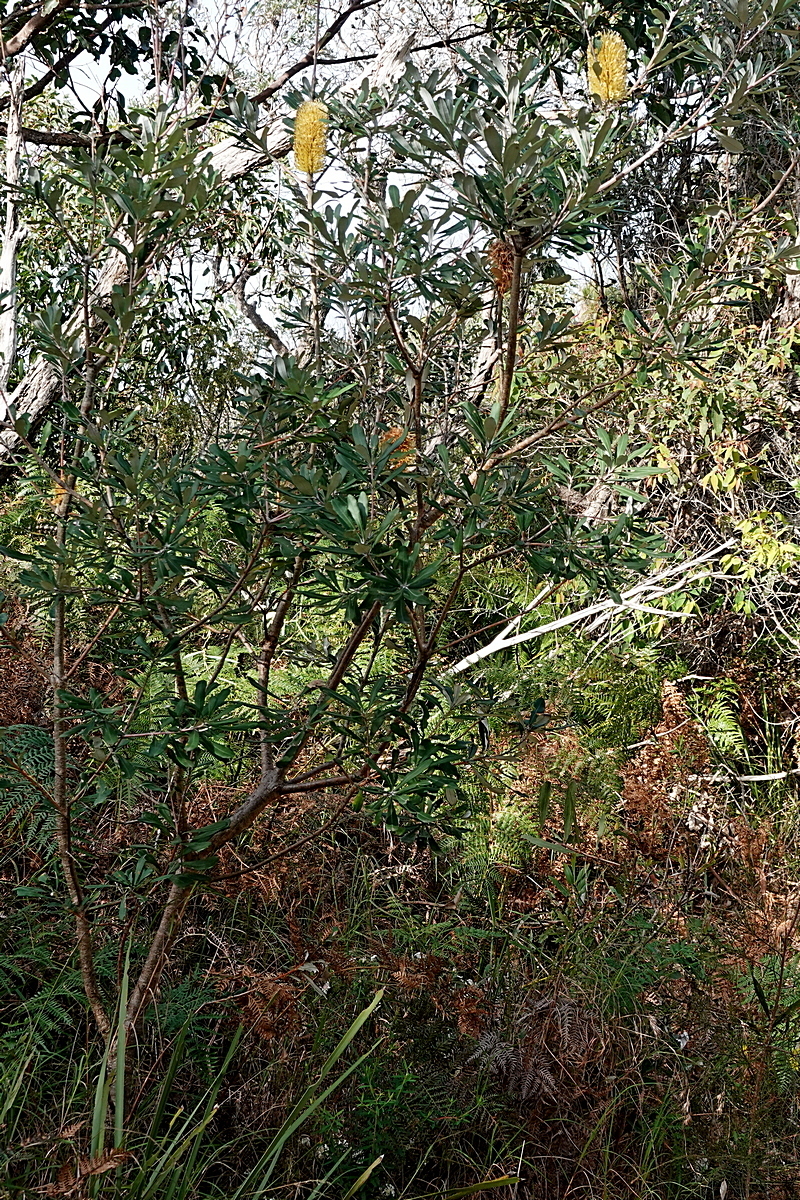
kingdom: Plantae
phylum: Tracheophyta
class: Magnoliopsida
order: Proteales
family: Proteaceae
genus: Banksia
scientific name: Banksia integrifolia
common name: White-honeysuckle
